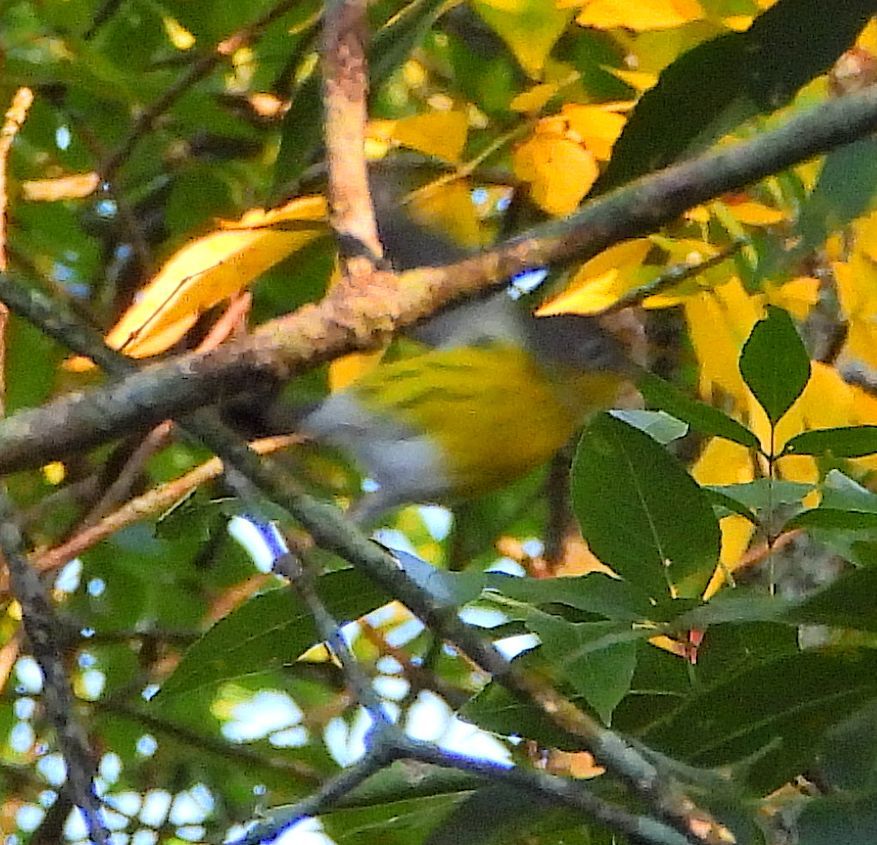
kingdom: Animalia
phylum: Chordata
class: Aves
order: Passeriformes
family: Parulidae
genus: Setophaga
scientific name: Setophaga magnolia
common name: Magnolia warbler
